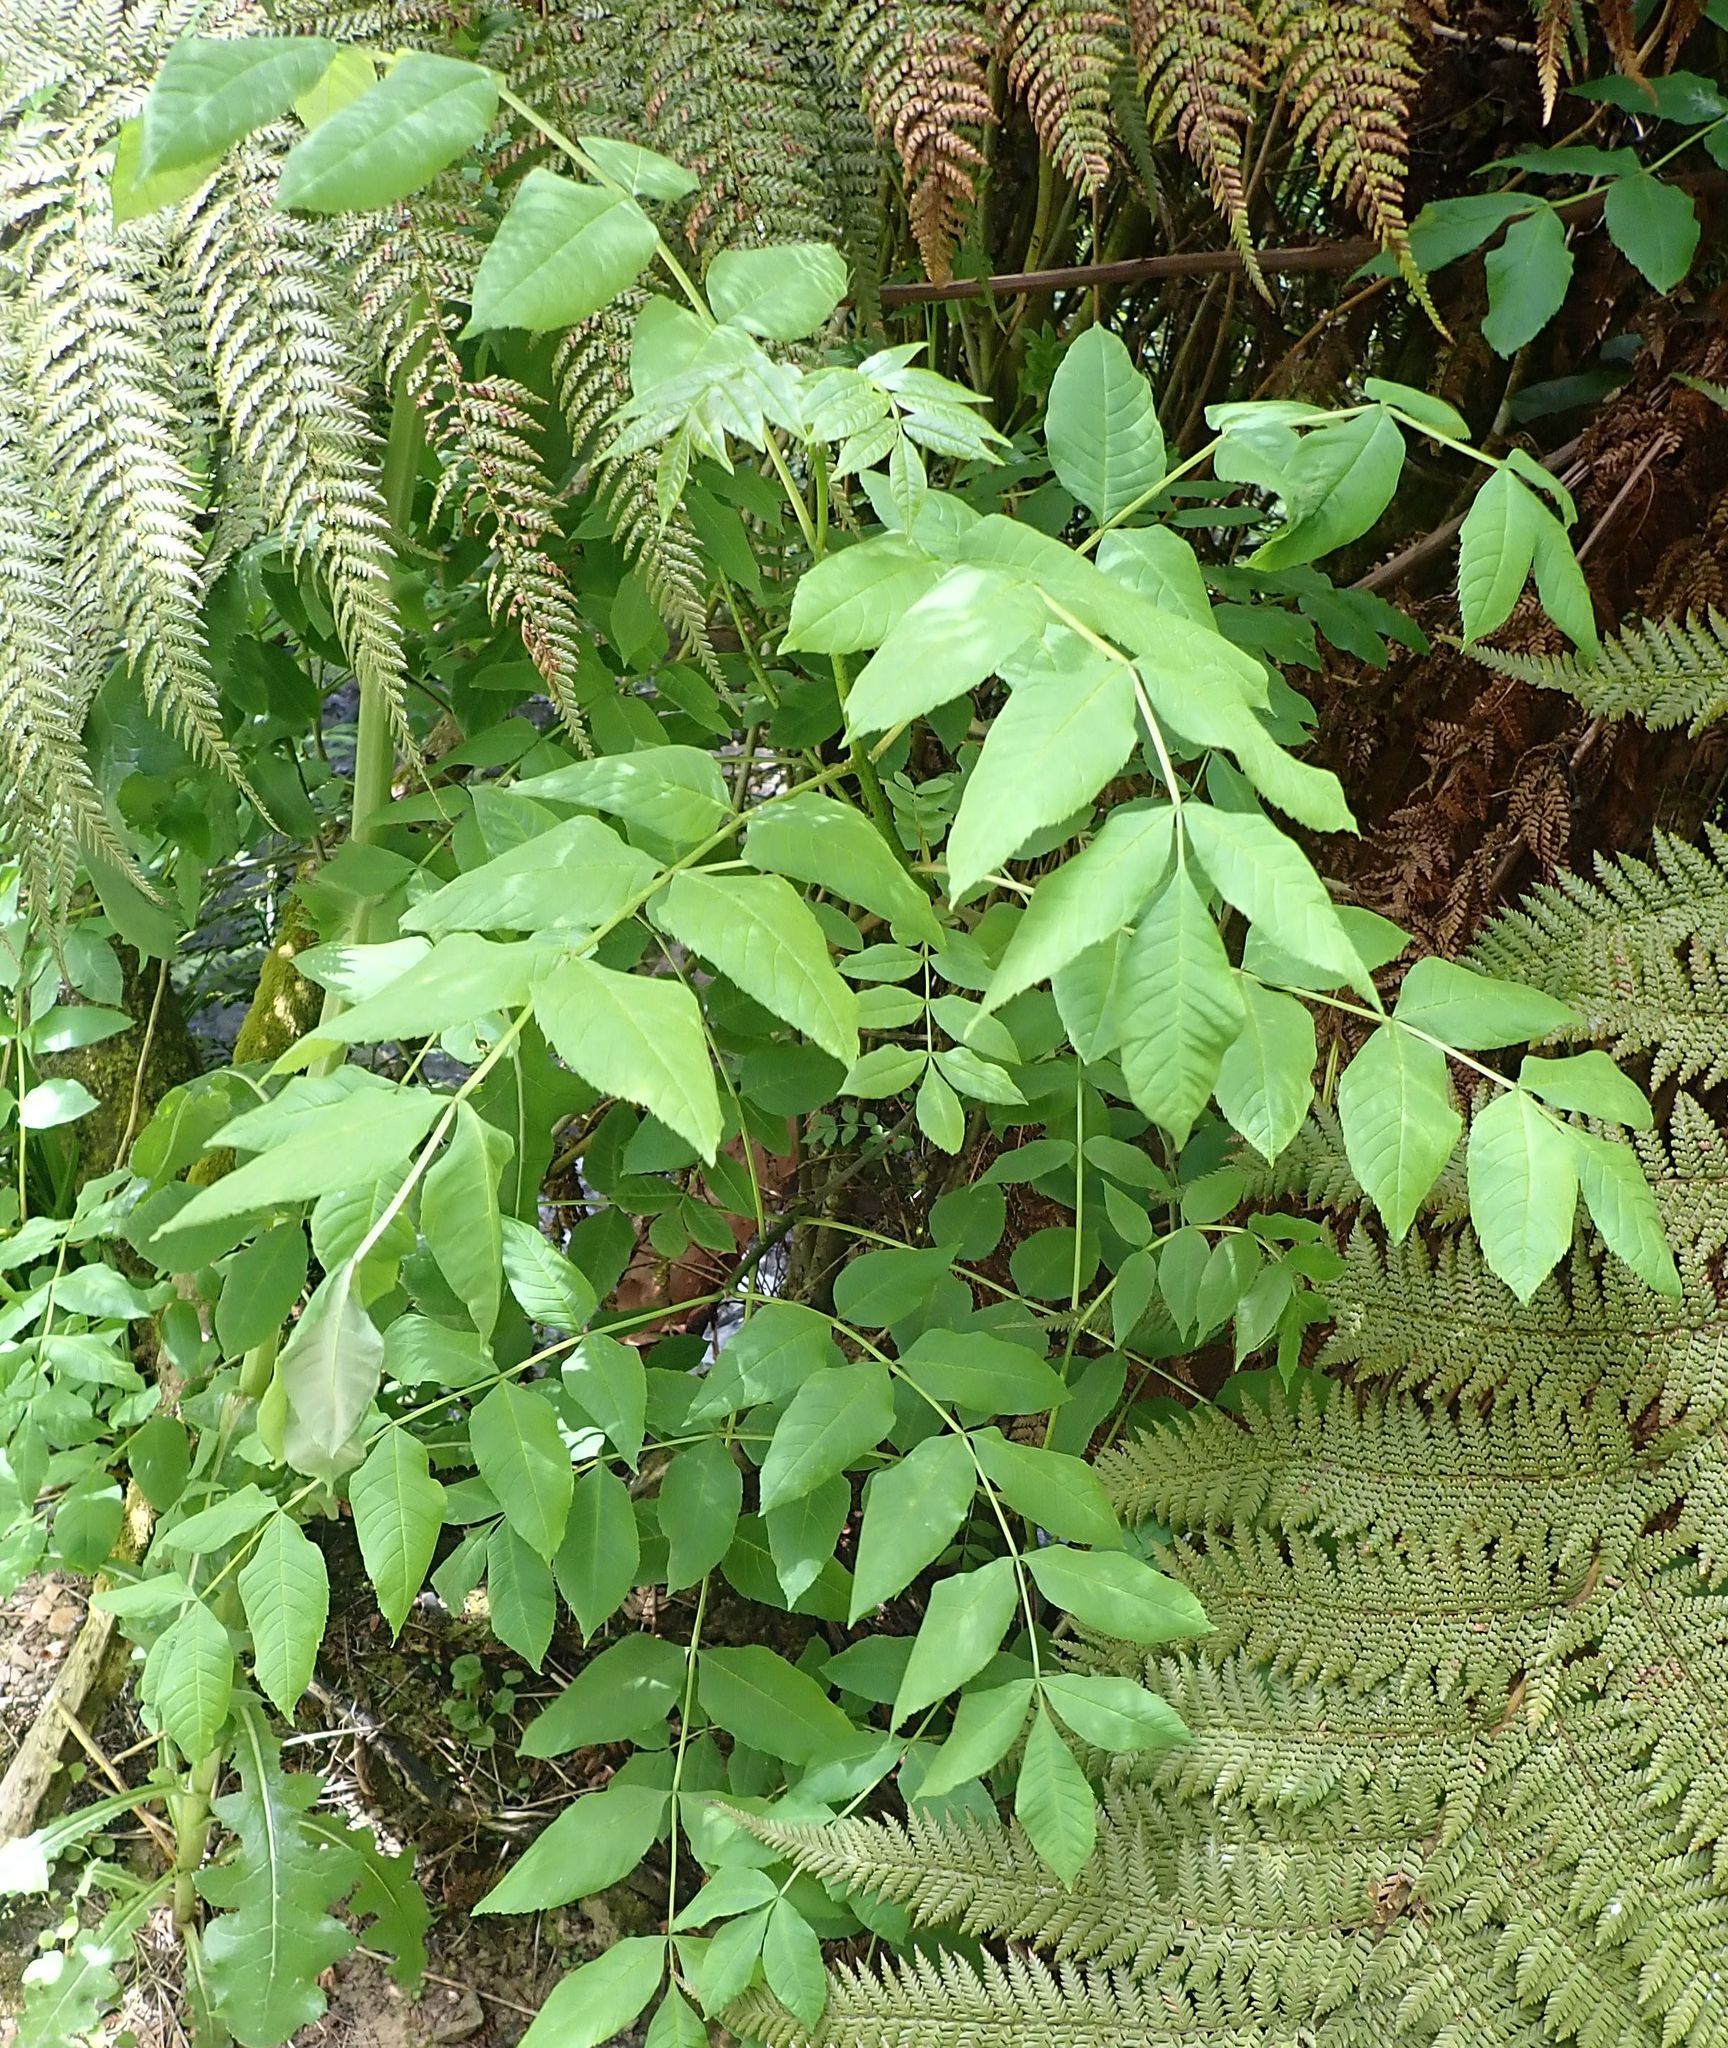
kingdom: Plantae
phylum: Tracheophyta
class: Magnoliopsida
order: Lamiales
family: Oleaceae
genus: Fraxinus
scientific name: Fraxinus excelsior
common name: European ash
